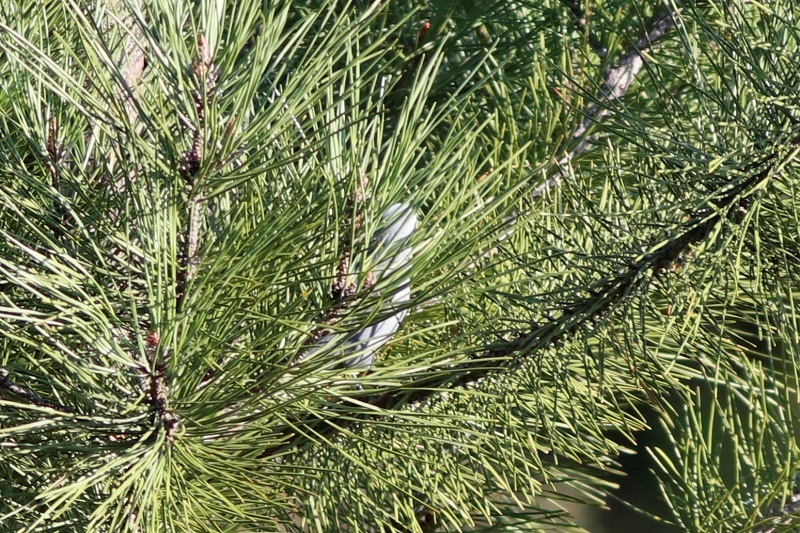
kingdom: Animalia
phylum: Chordata
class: Aves
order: Passeriformes
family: Campephagidae
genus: Coracina
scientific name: Coracina caesia
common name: Grey cuckooshrike
